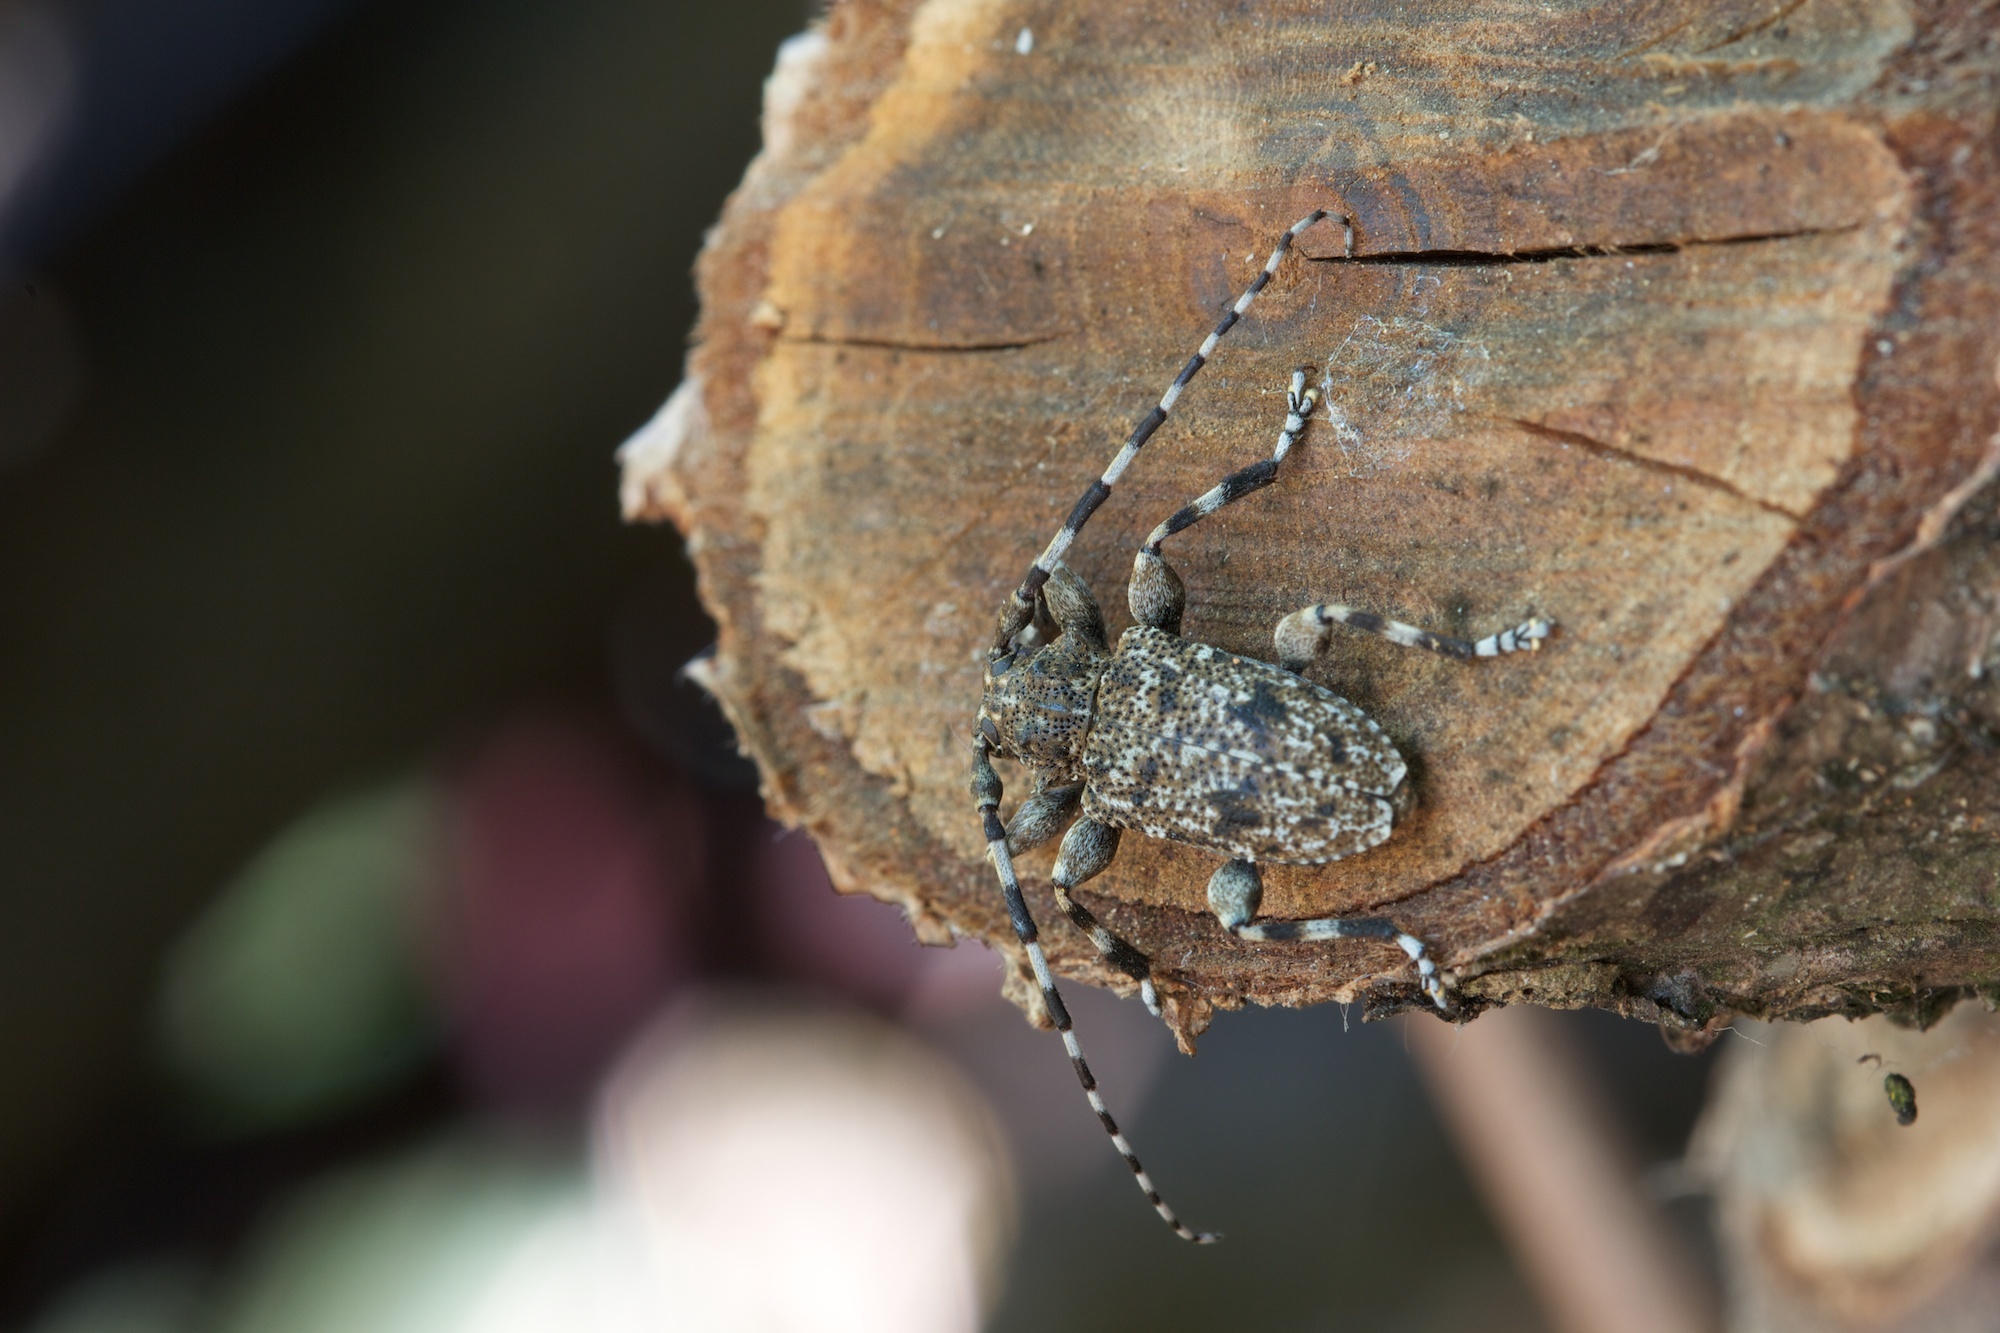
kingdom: Animalia
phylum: Arthropoda
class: Insecta
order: Coleoptera
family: Cerambycidae
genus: Aegomorphus
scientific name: Aegomorphus clavipes
